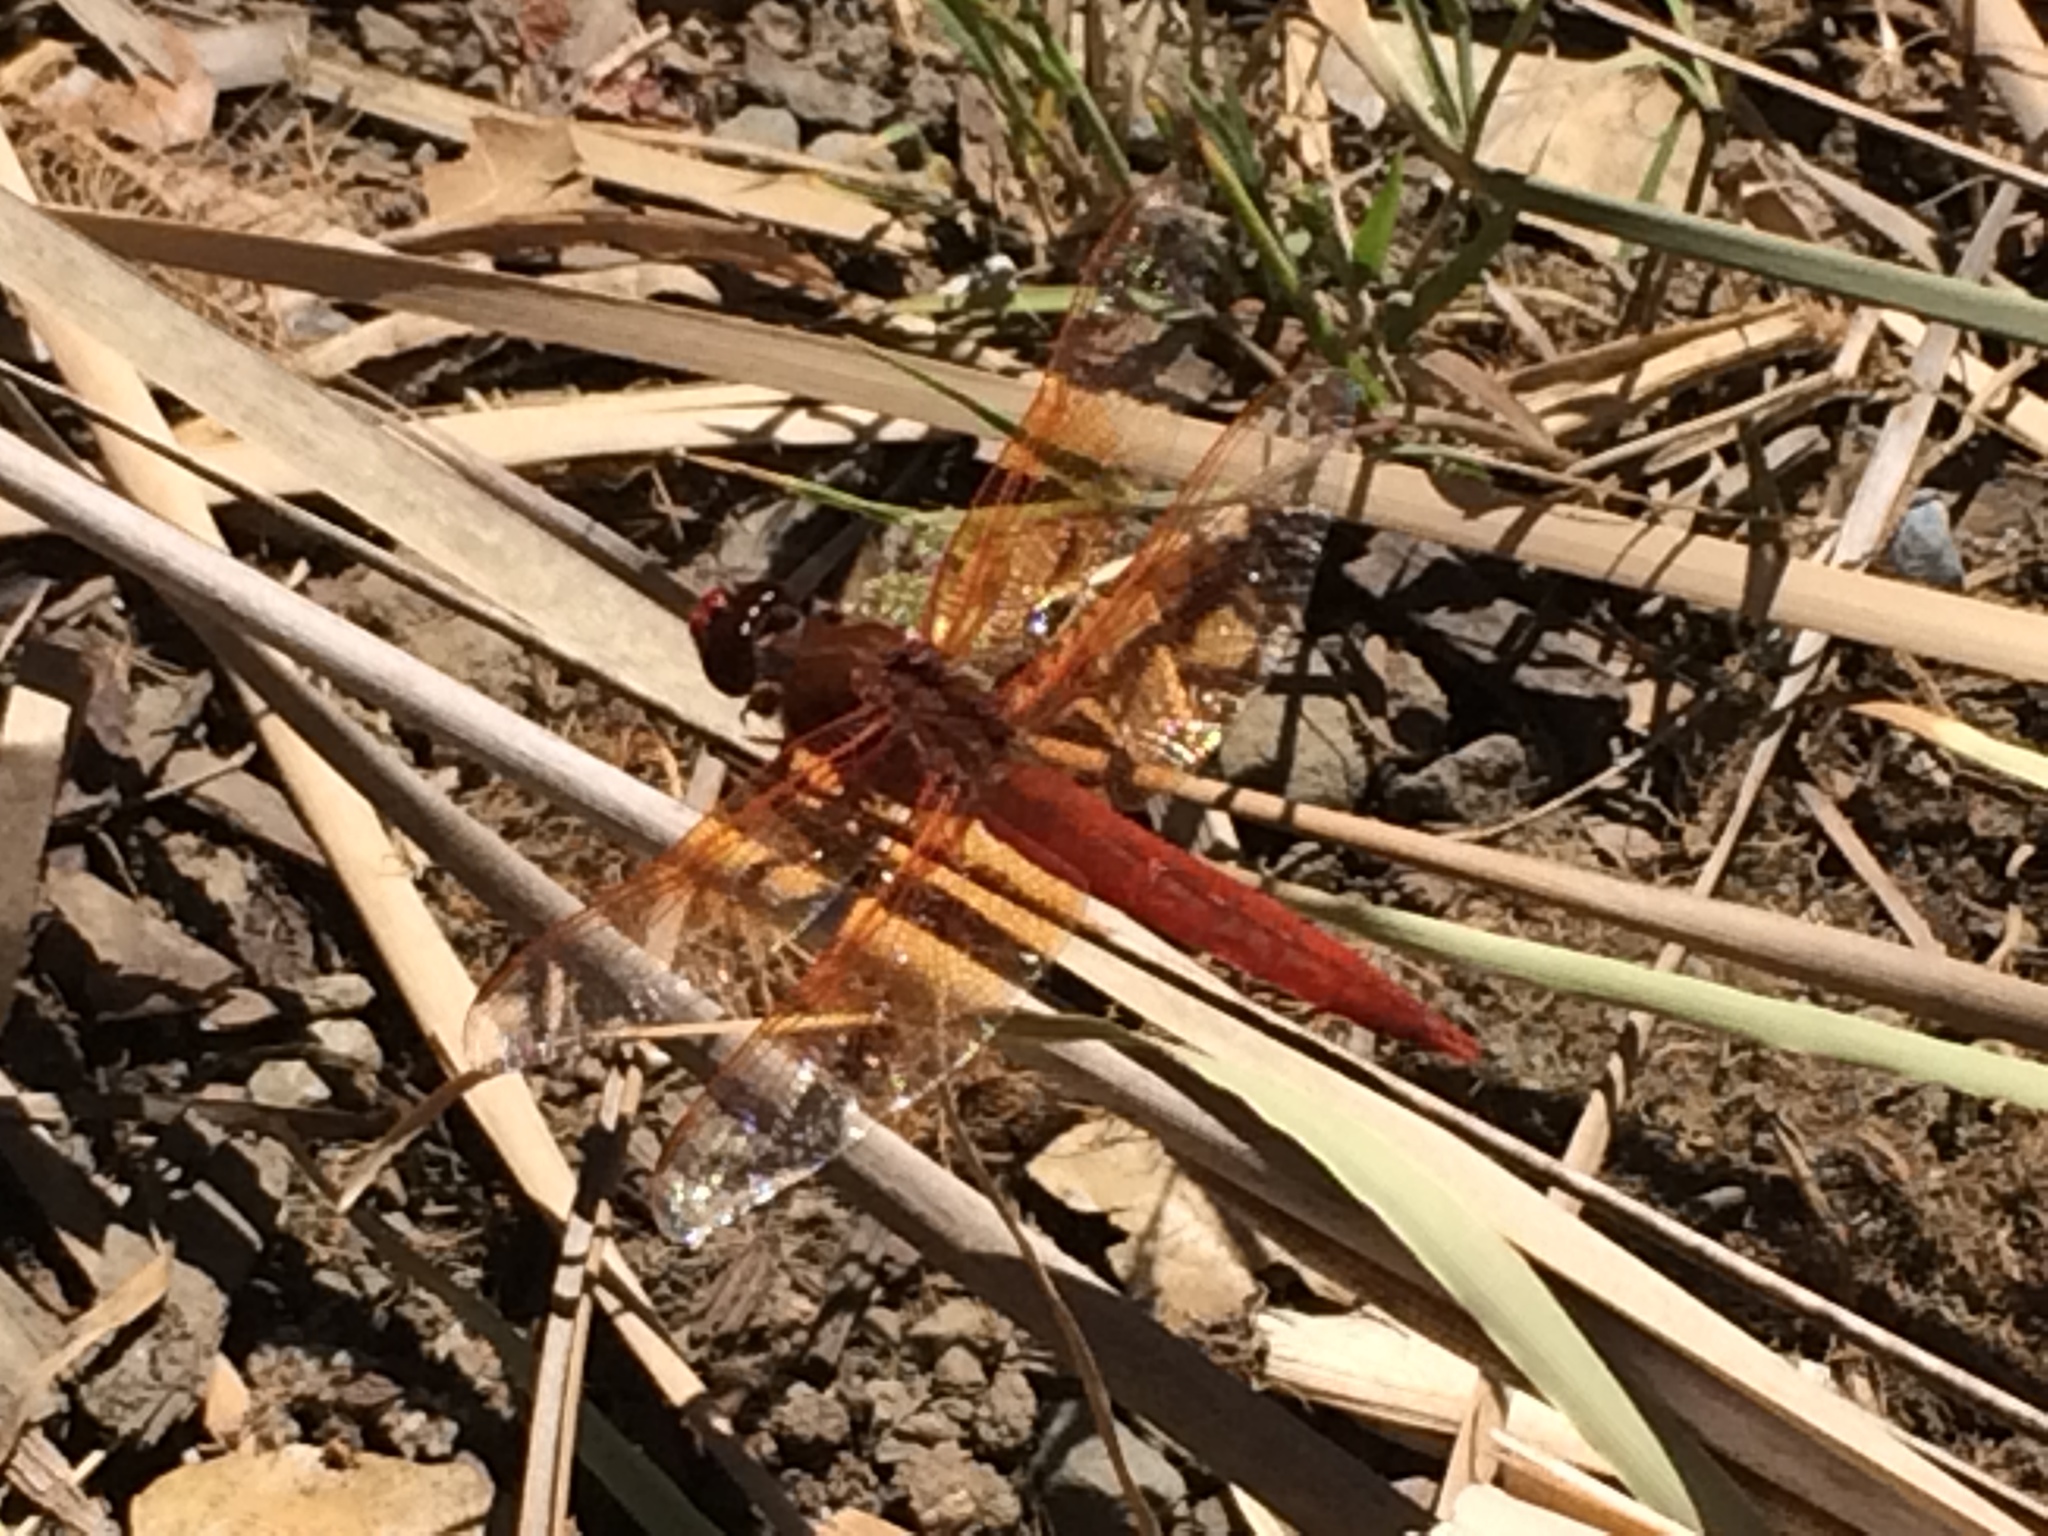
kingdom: Animalia
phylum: Arthropoda
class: Insecta
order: Odonata
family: Libellulidae
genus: Libellula
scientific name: Libellula saturata
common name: Flame skimmer
